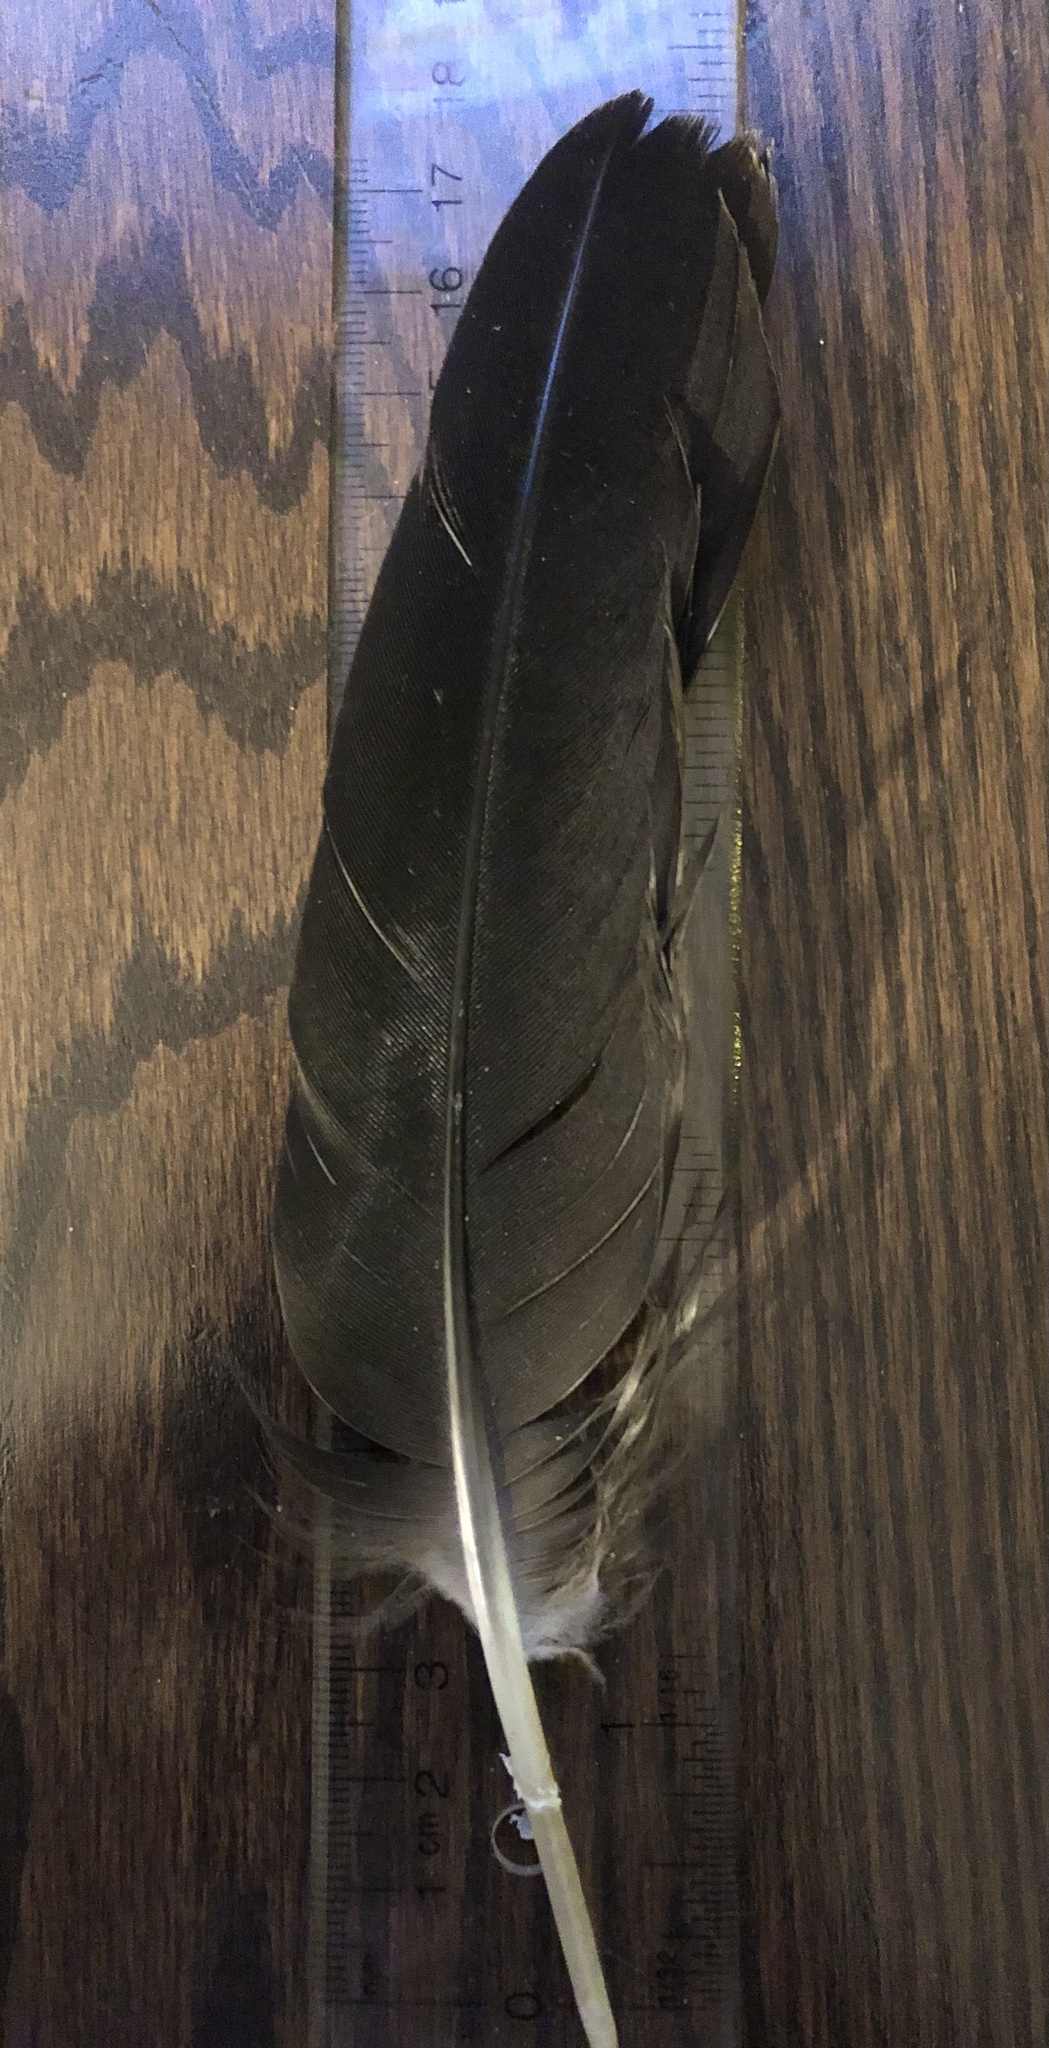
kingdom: Animalia
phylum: Chordata
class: Aves
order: Anseriformes
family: Anatidae
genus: Branta
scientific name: Branta canadensis
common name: Canada goose
